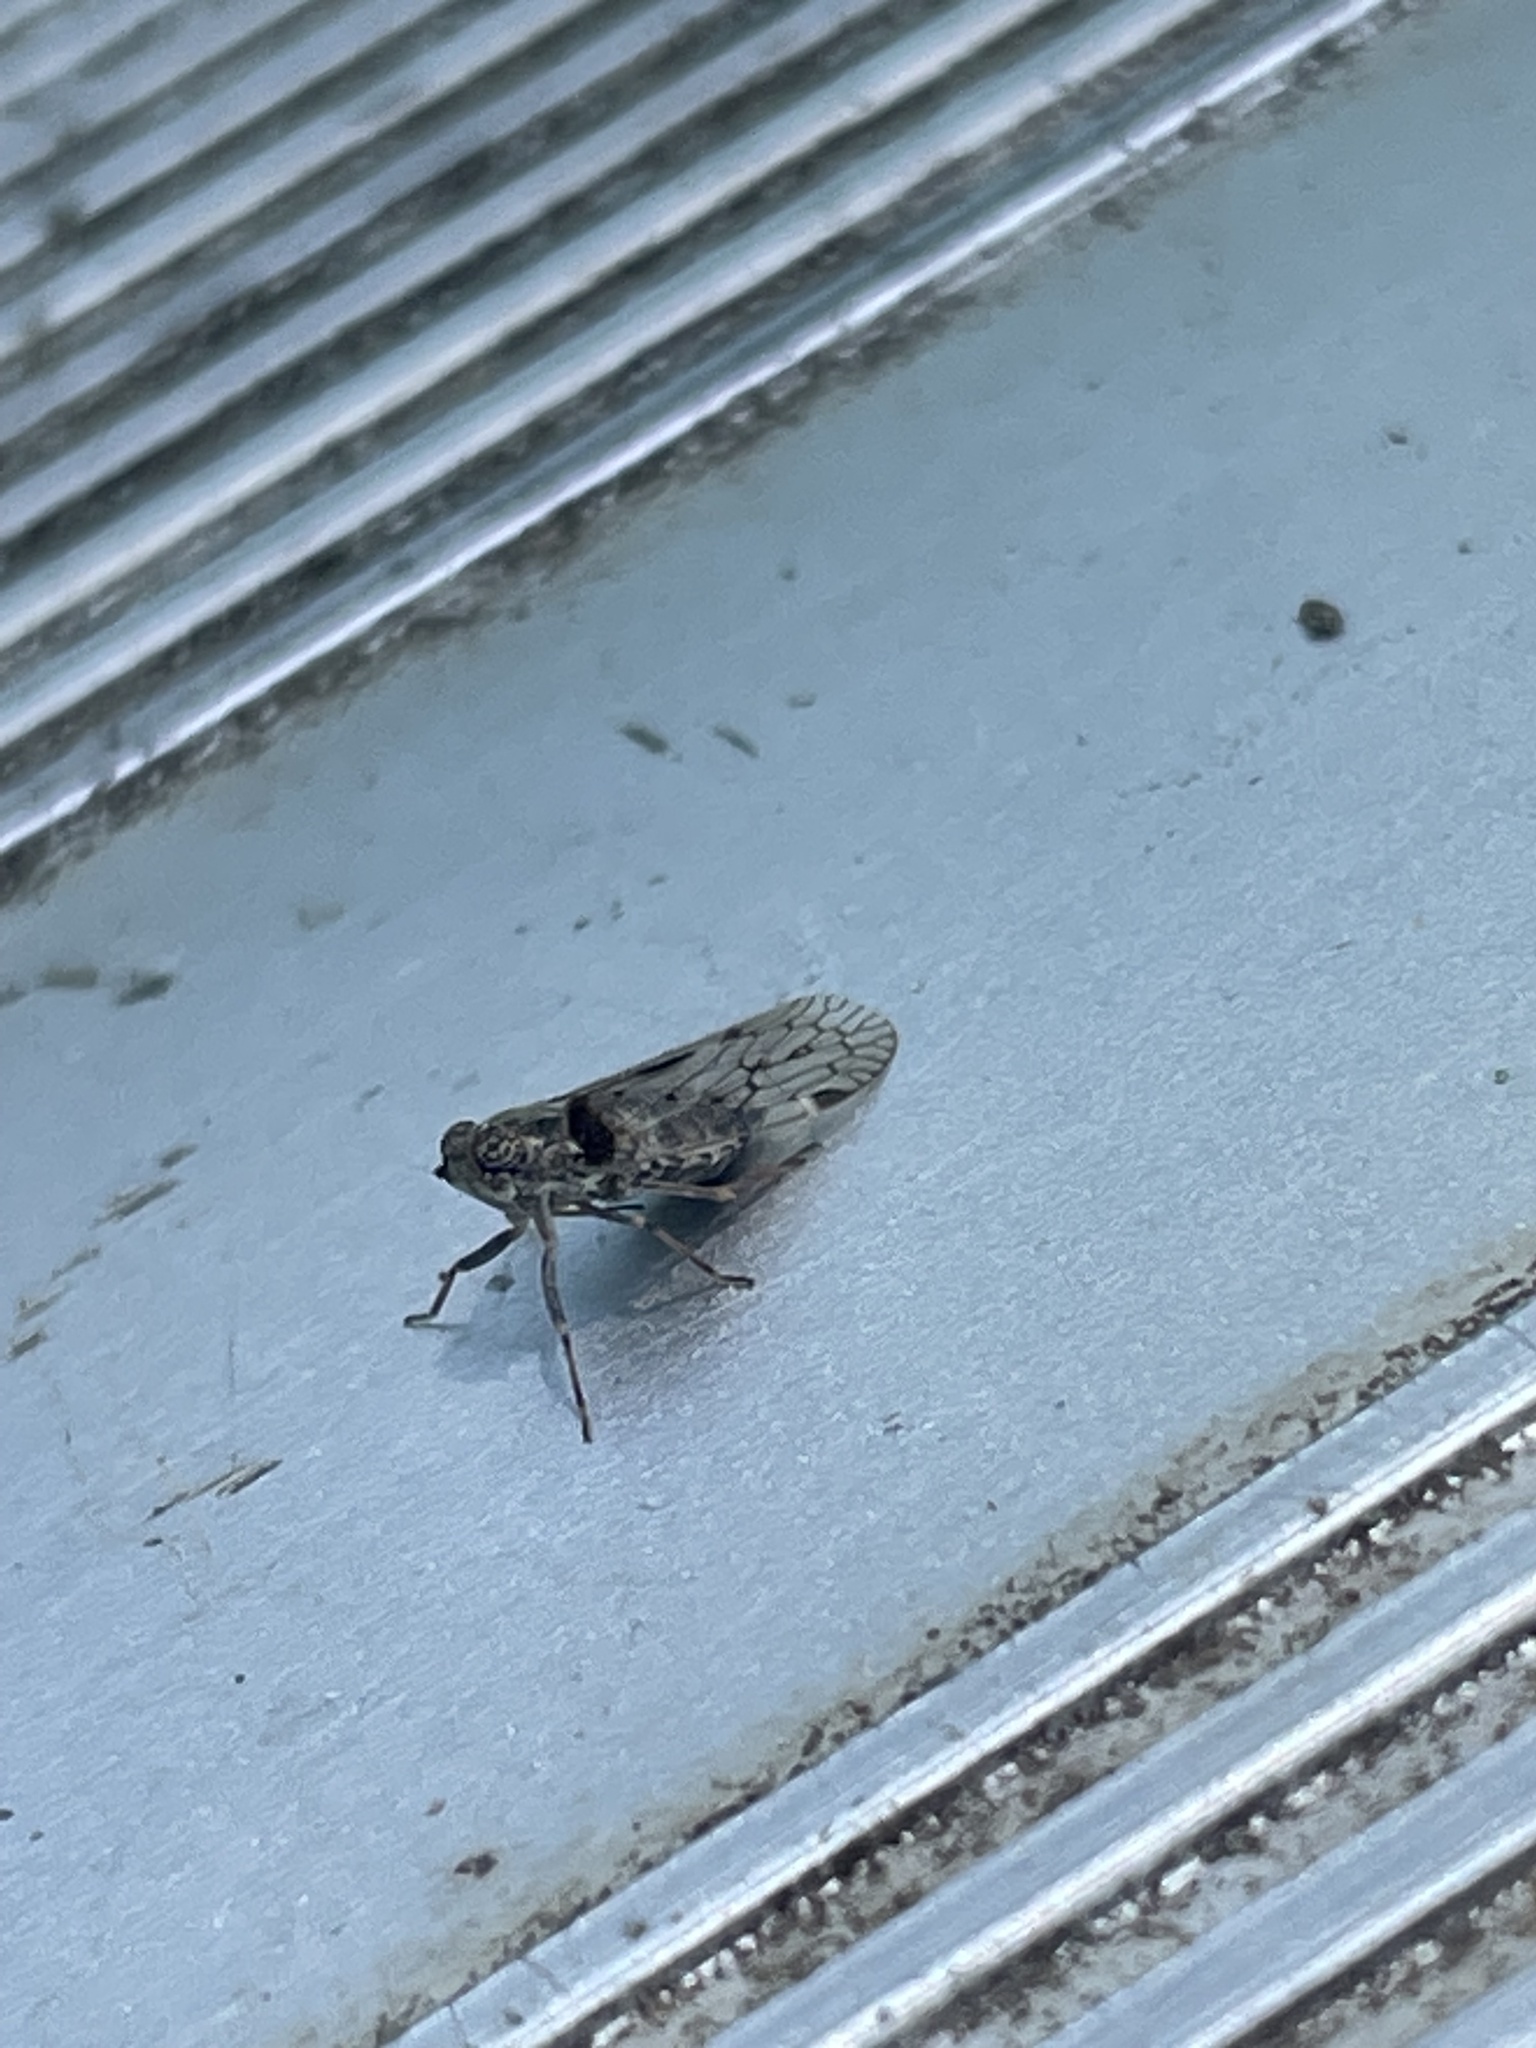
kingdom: Animalia
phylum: Arthropoda
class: Insecta
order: Hemiptera
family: Cixiidae
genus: Melanoliarus
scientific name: Melanoliarus aridus
